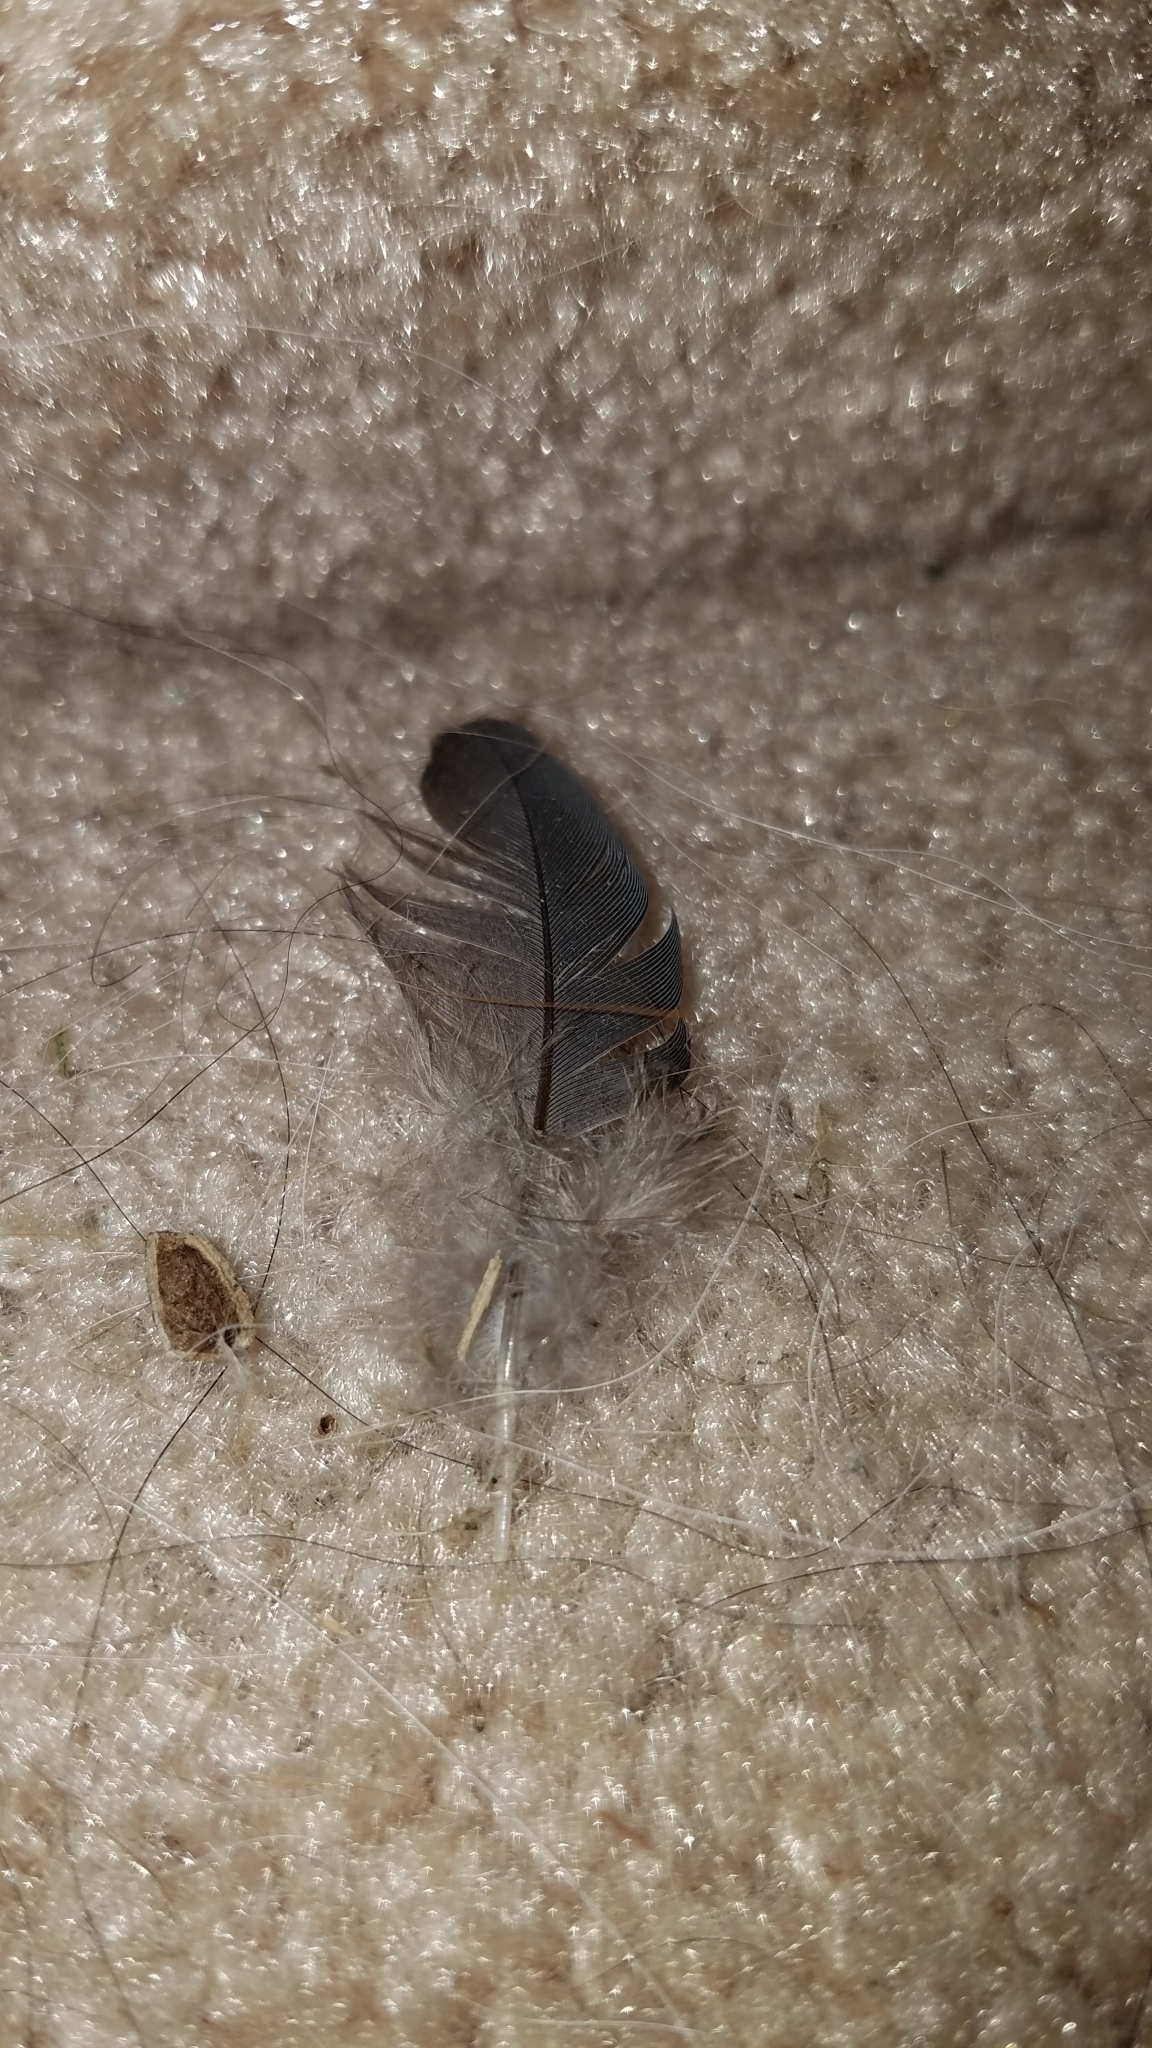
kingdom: Animalia
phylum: Chordata
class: Aves
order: Columbiformes
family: Columbidae
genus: Zenaida
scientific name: Zenaida macroura
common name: Mourning dove
